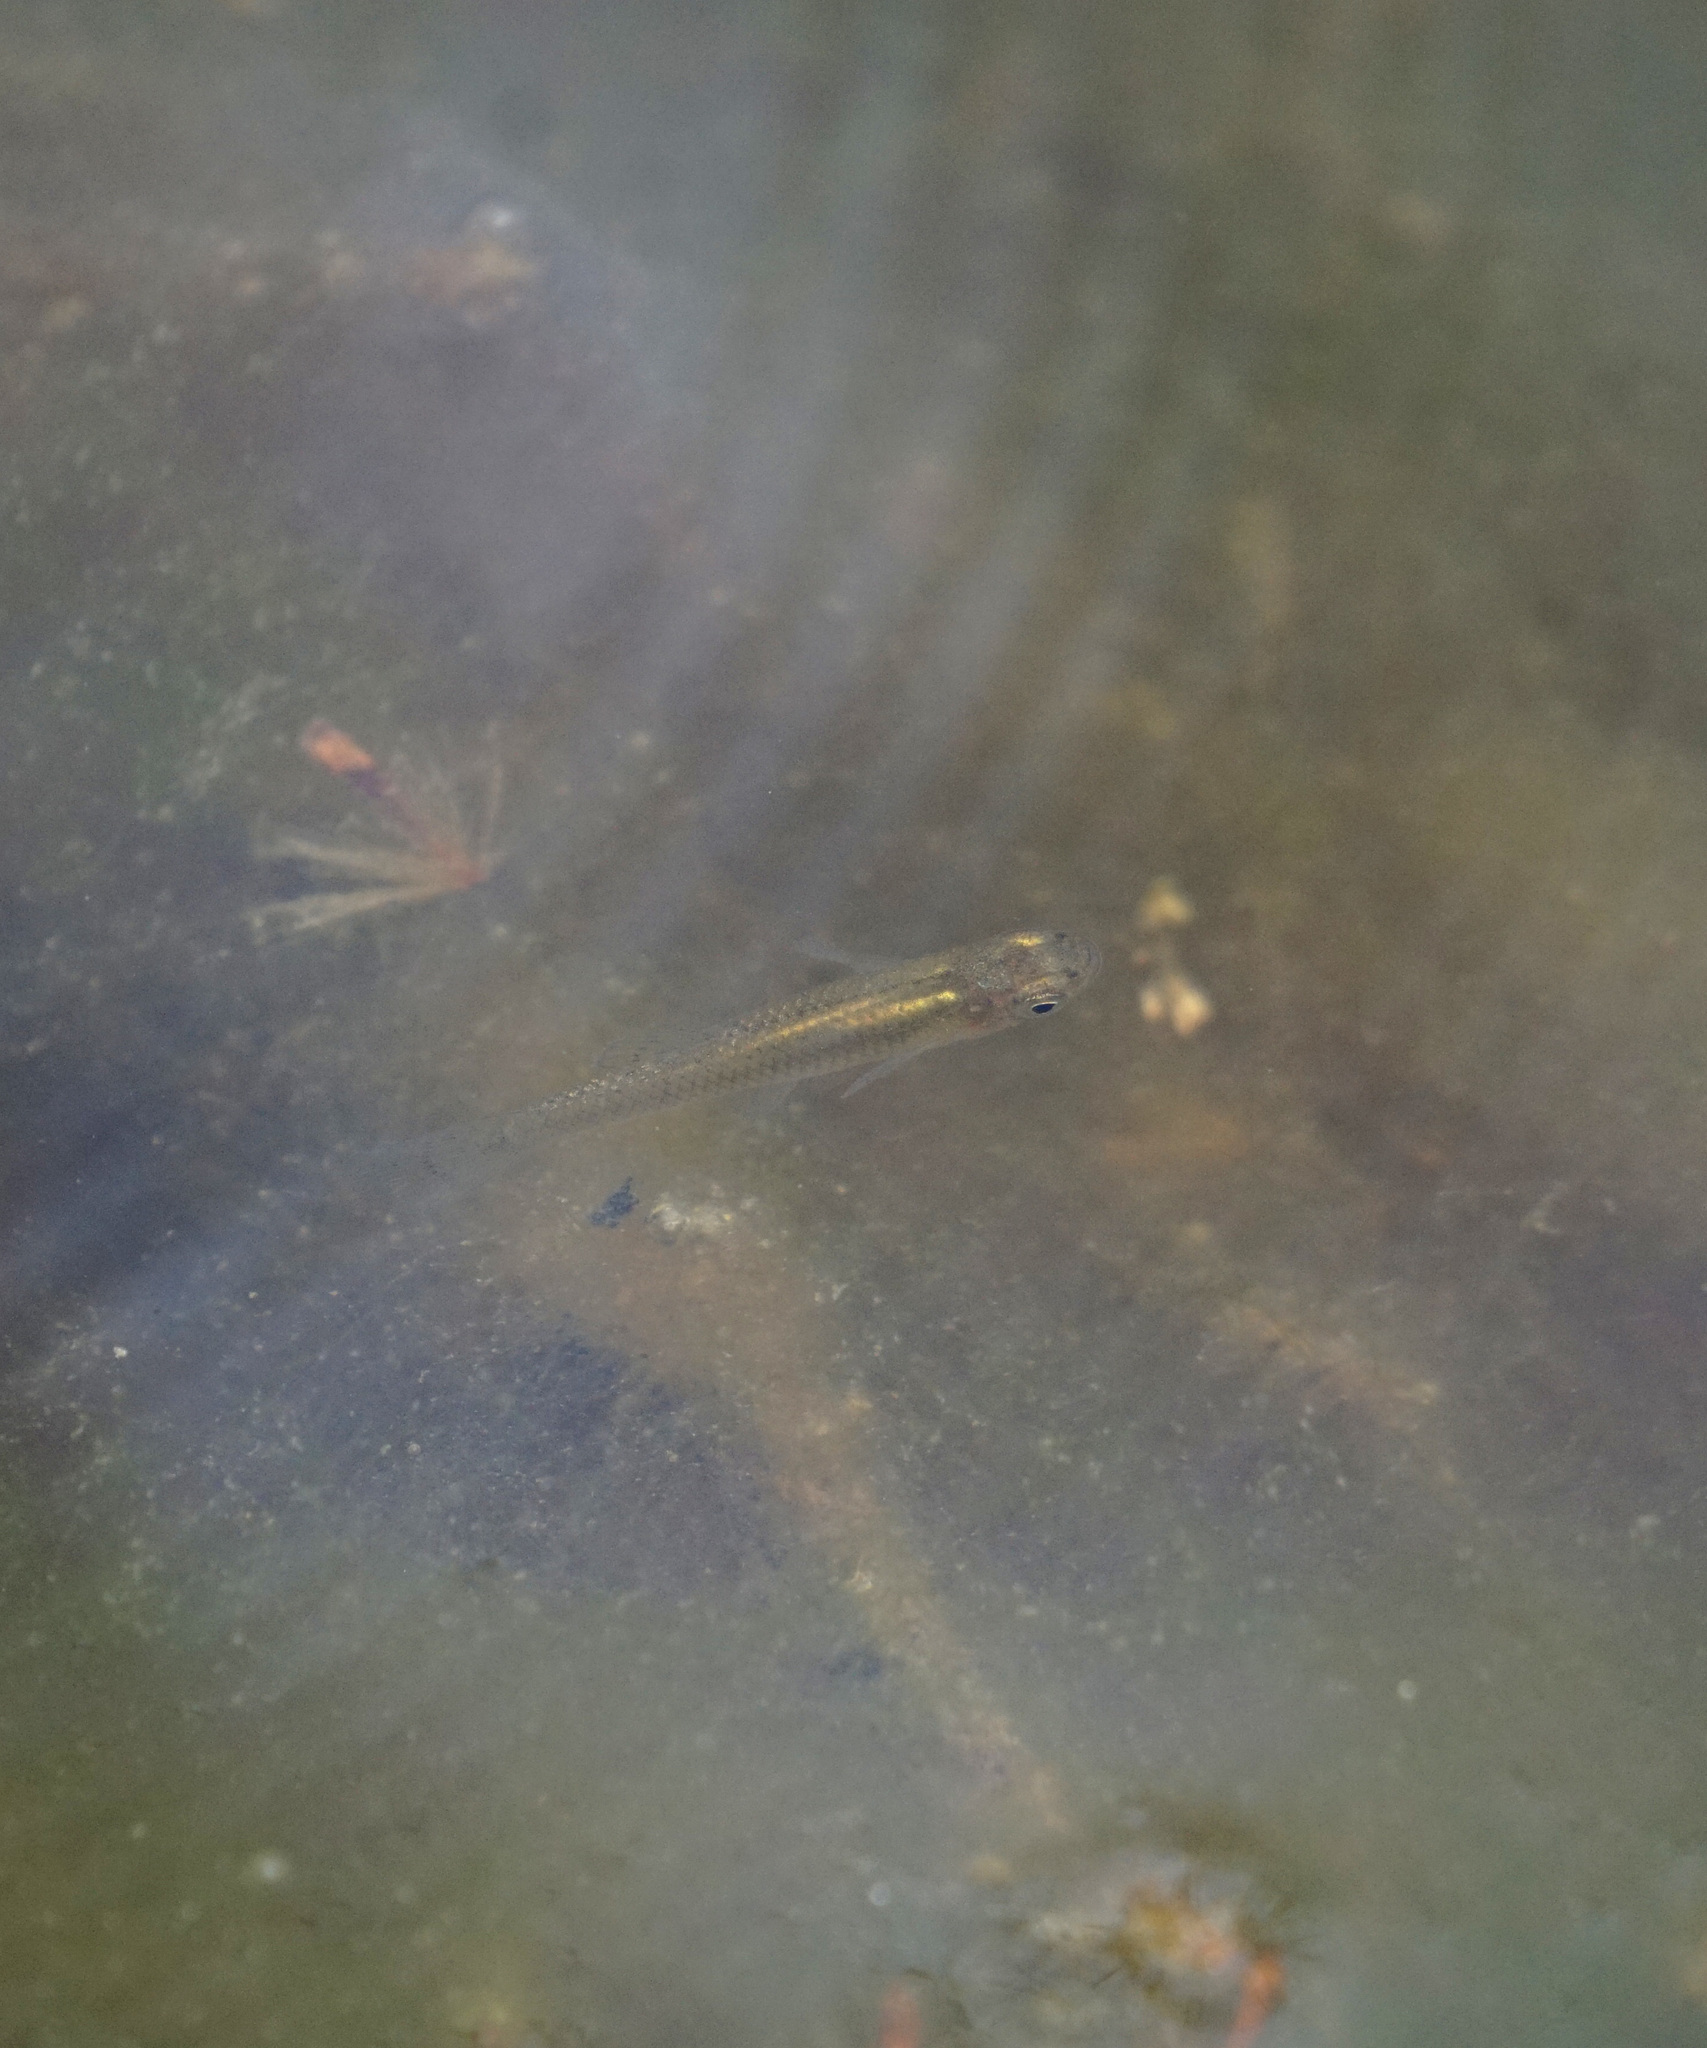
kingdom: Animalia
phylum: Chordata
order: Cyprinodontiformes
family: Poeciliidae
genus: Gambusia
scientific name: Gambusia holbrooki
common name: Eastern mosquitofish
